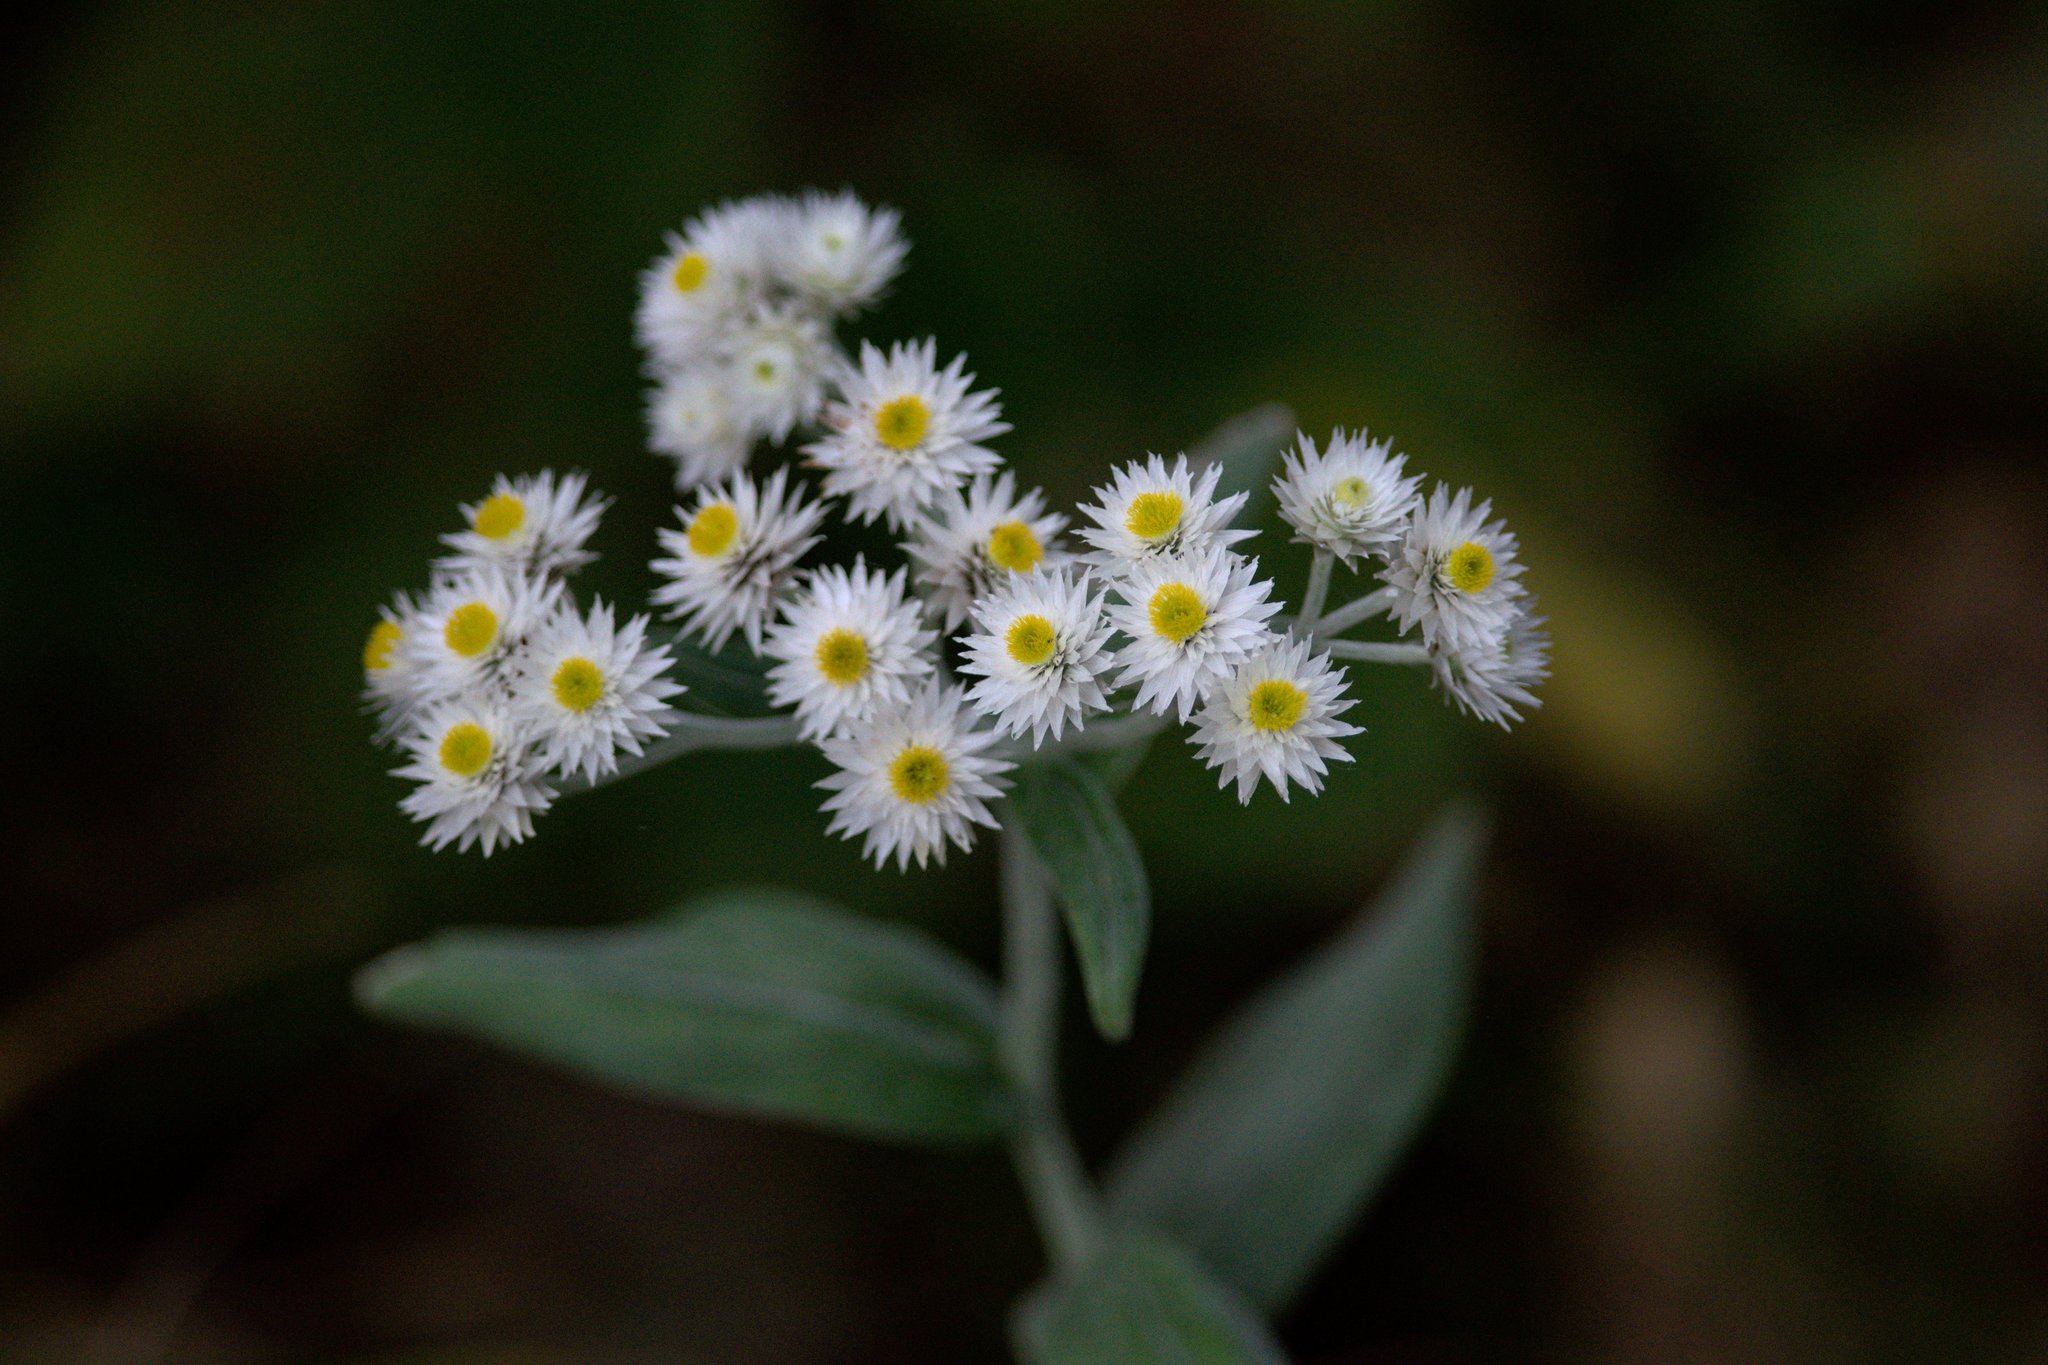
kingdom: Plantae
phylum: Tracheophyta
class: Magnoliopsida
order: Asterales
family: Asteraceae
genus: Anaphalis
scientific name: Anaphalis triplinervis
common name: Pearly everlasting
